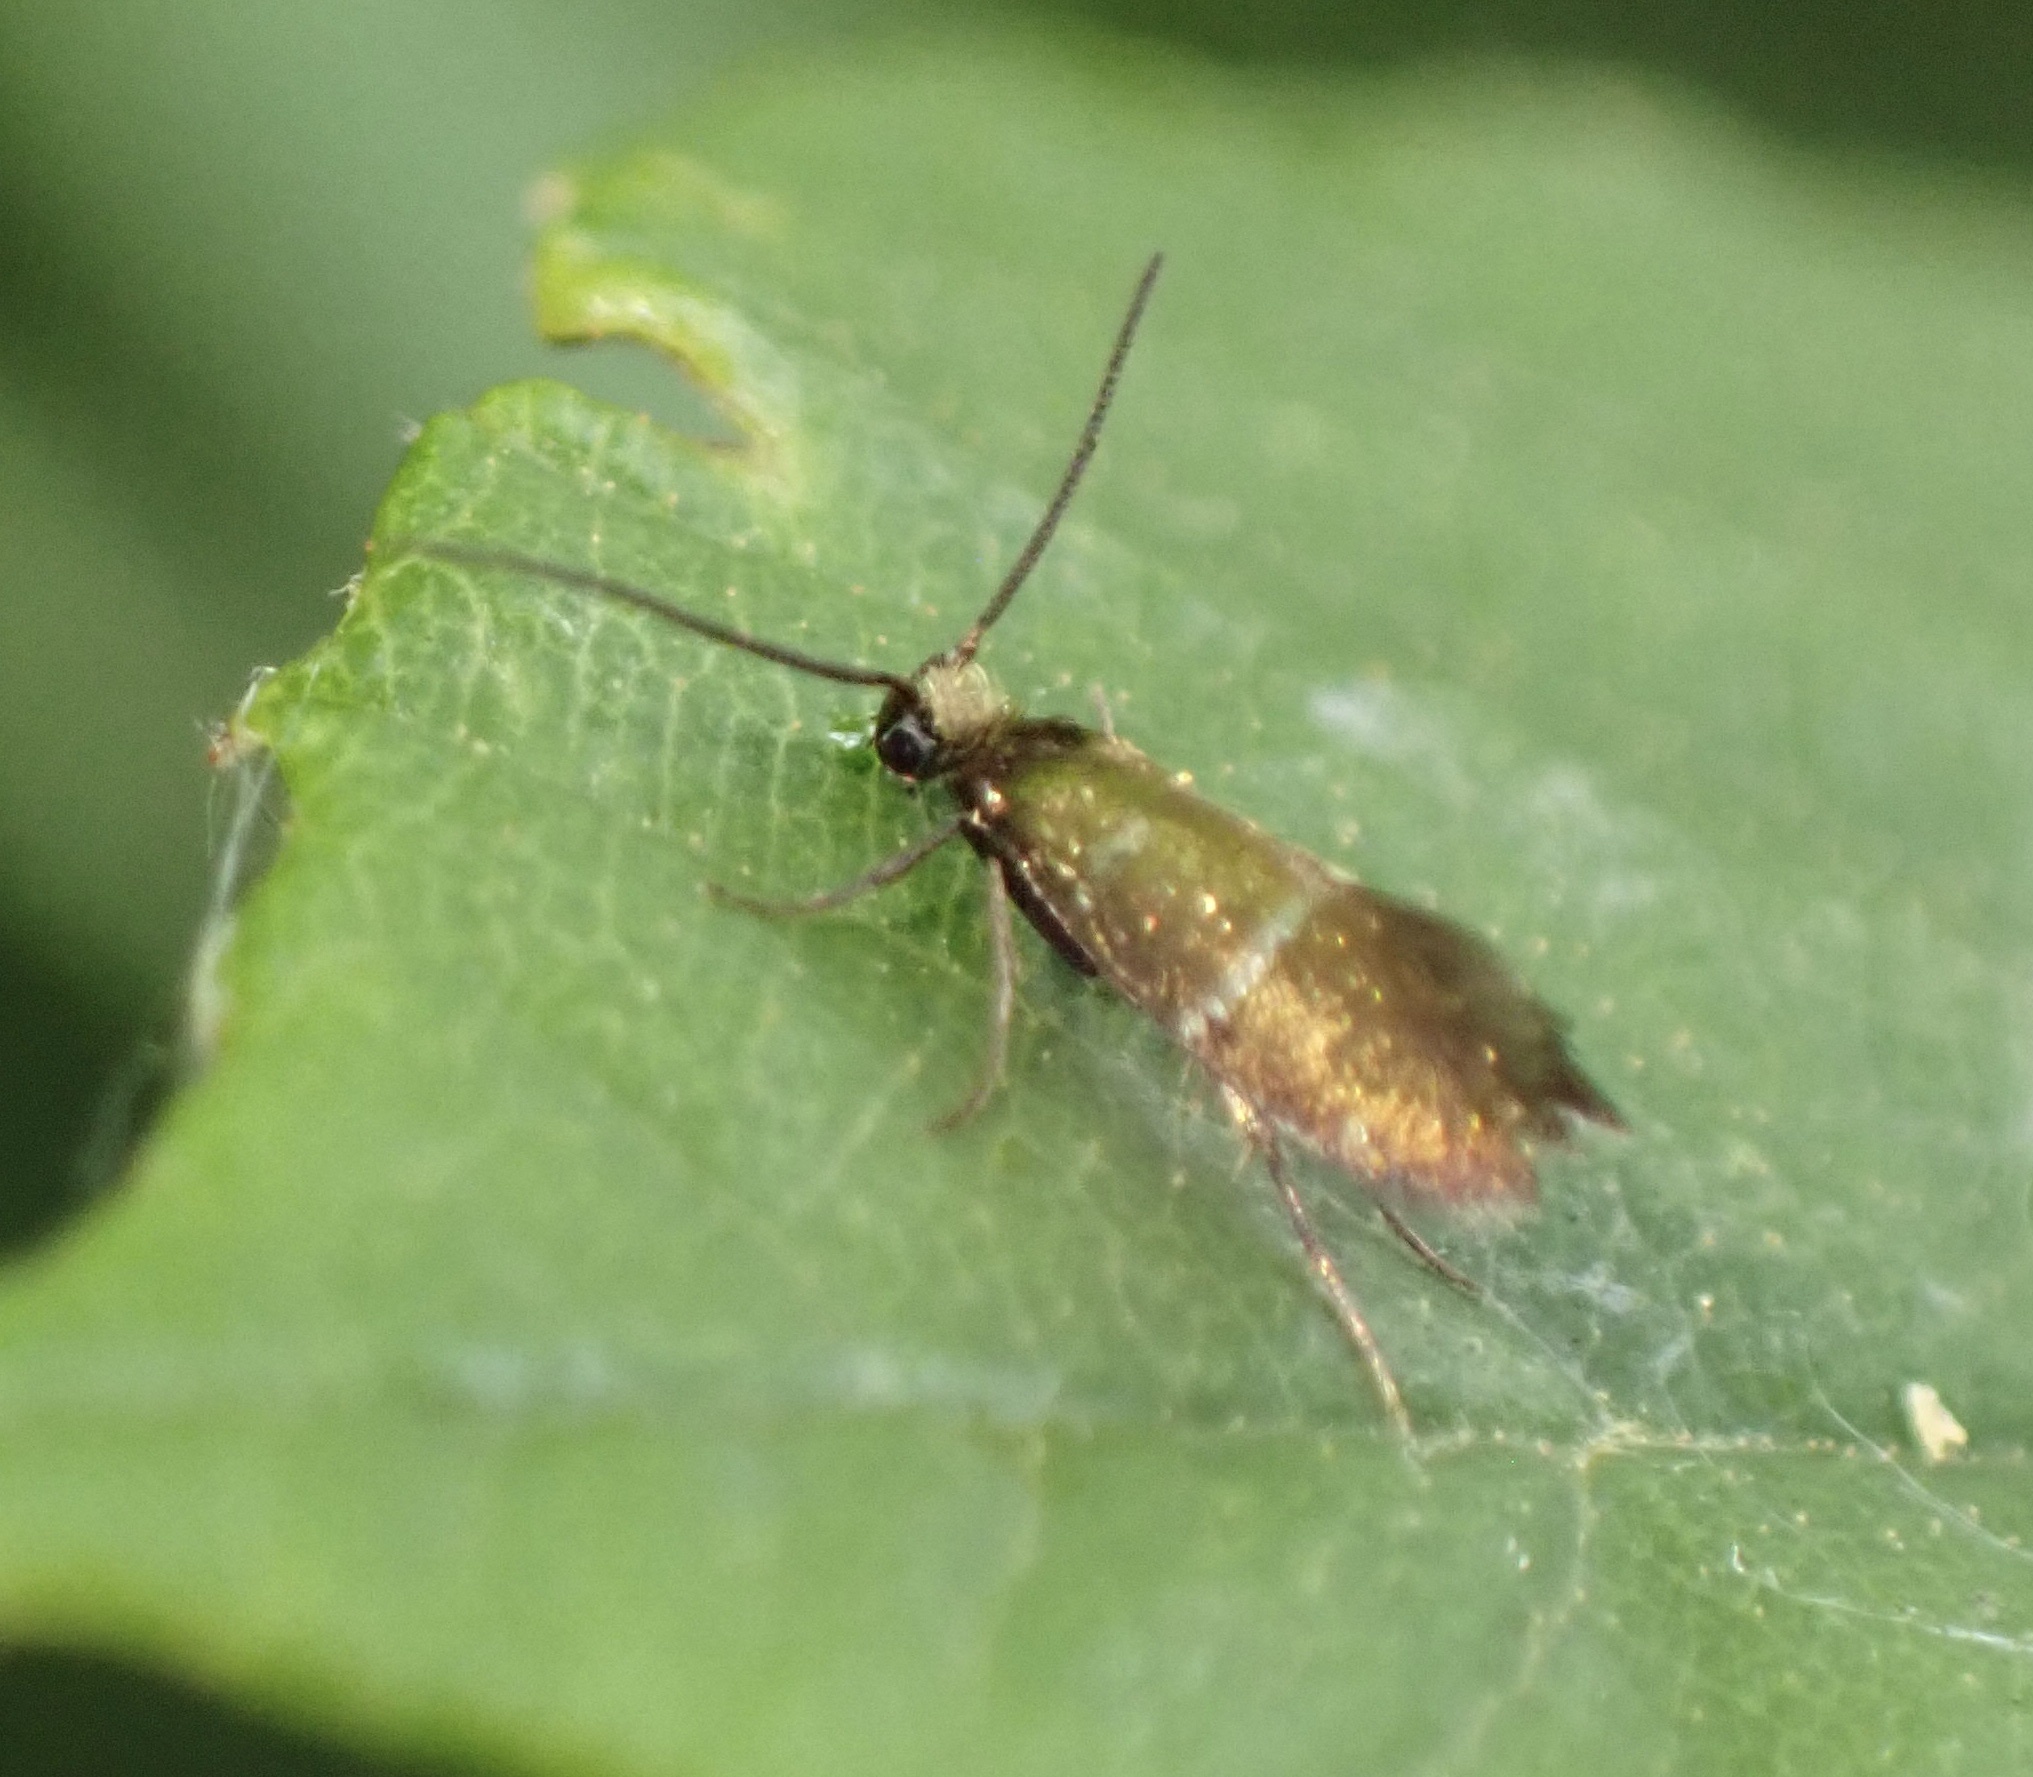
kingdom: Animalia
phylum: Arthropoda
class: Insecta
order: Lepidoptera
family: Micropterigidae
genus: Micropterix
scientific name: Micropterix aruncella
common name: White-barred gold
